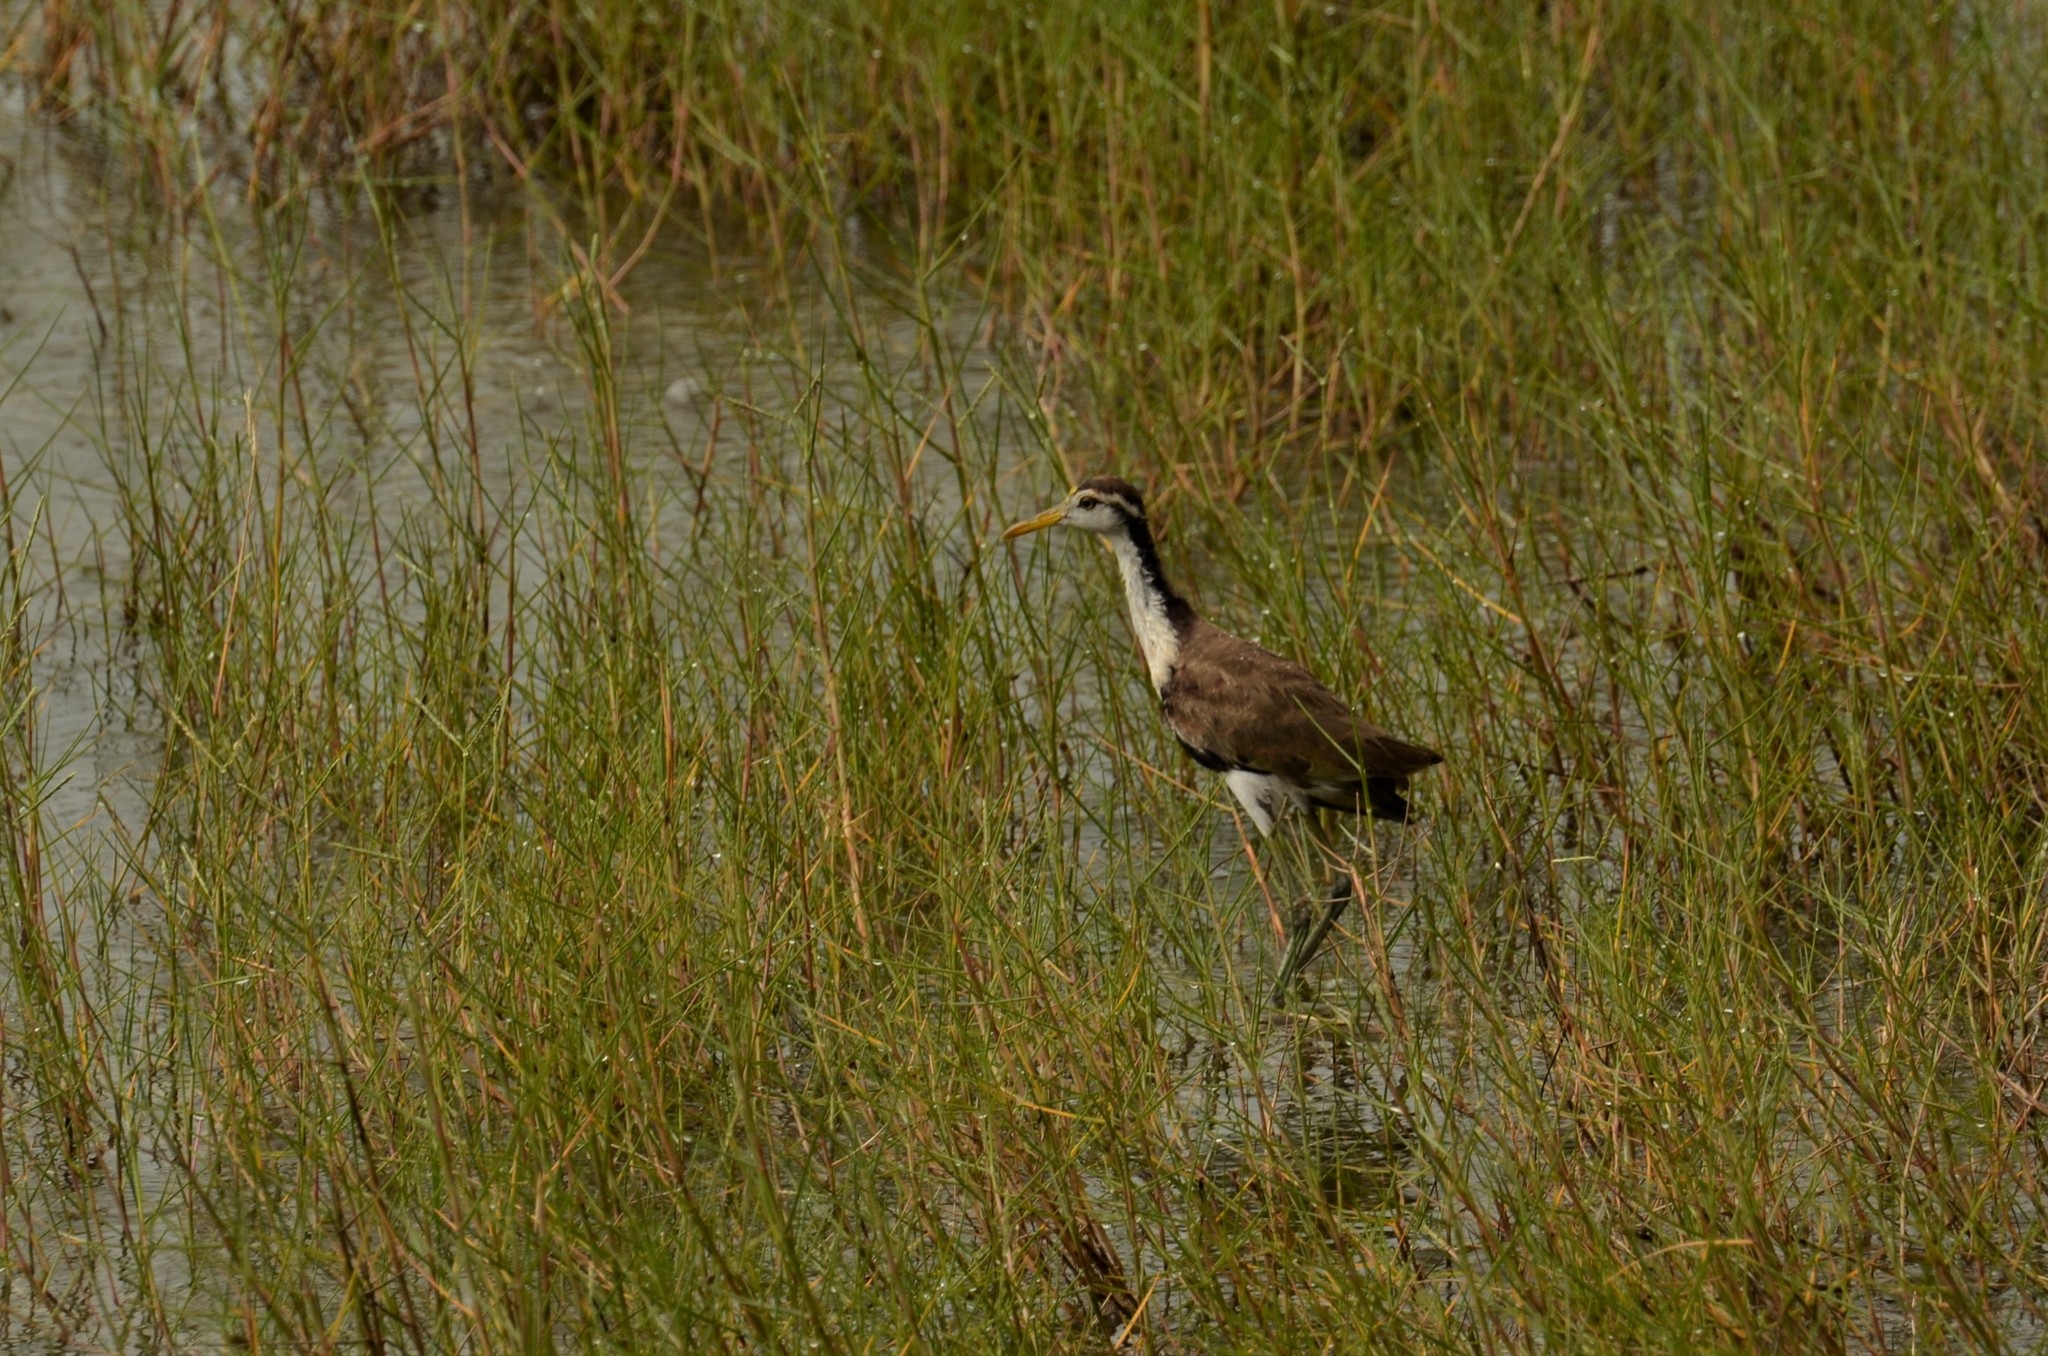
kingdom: Animalia
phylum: Chordata
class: Aves
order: Charadriiformes
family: Jacanidae
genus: Jacana
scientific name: Jacana spinosa
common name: Northern jacana
